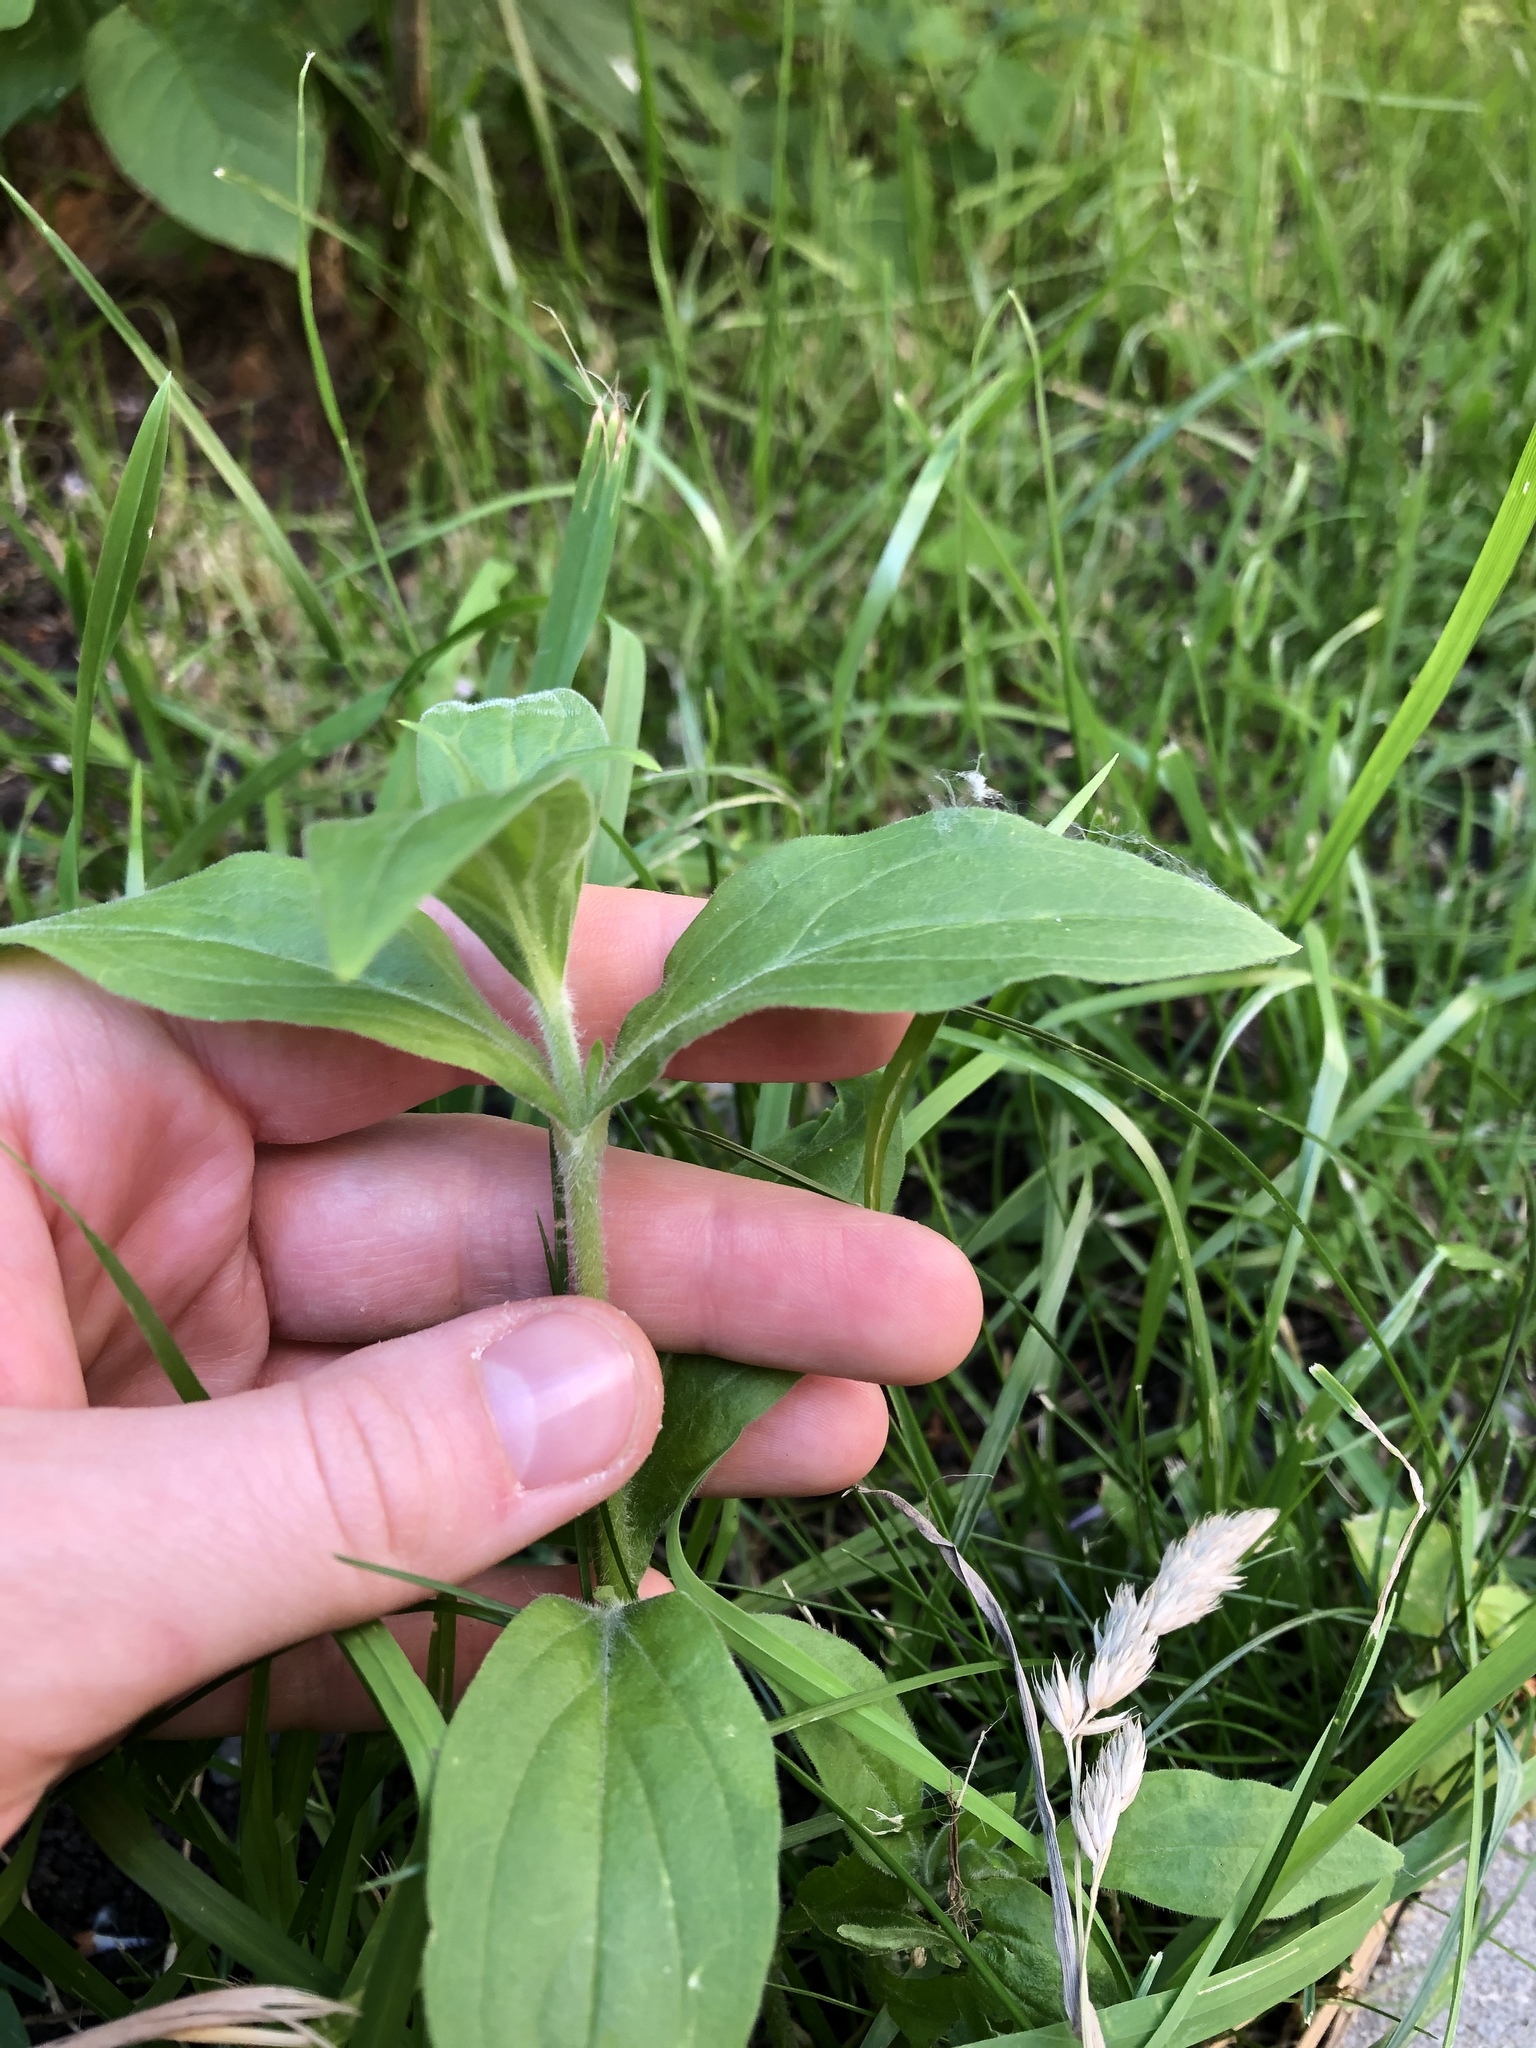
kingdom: Plantae
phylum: Tracheophyta
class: Magnoliopsida
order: Caryophyllales
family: Caryophyllaceae
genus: Silene
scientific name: Silene latifolia
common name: White campion
